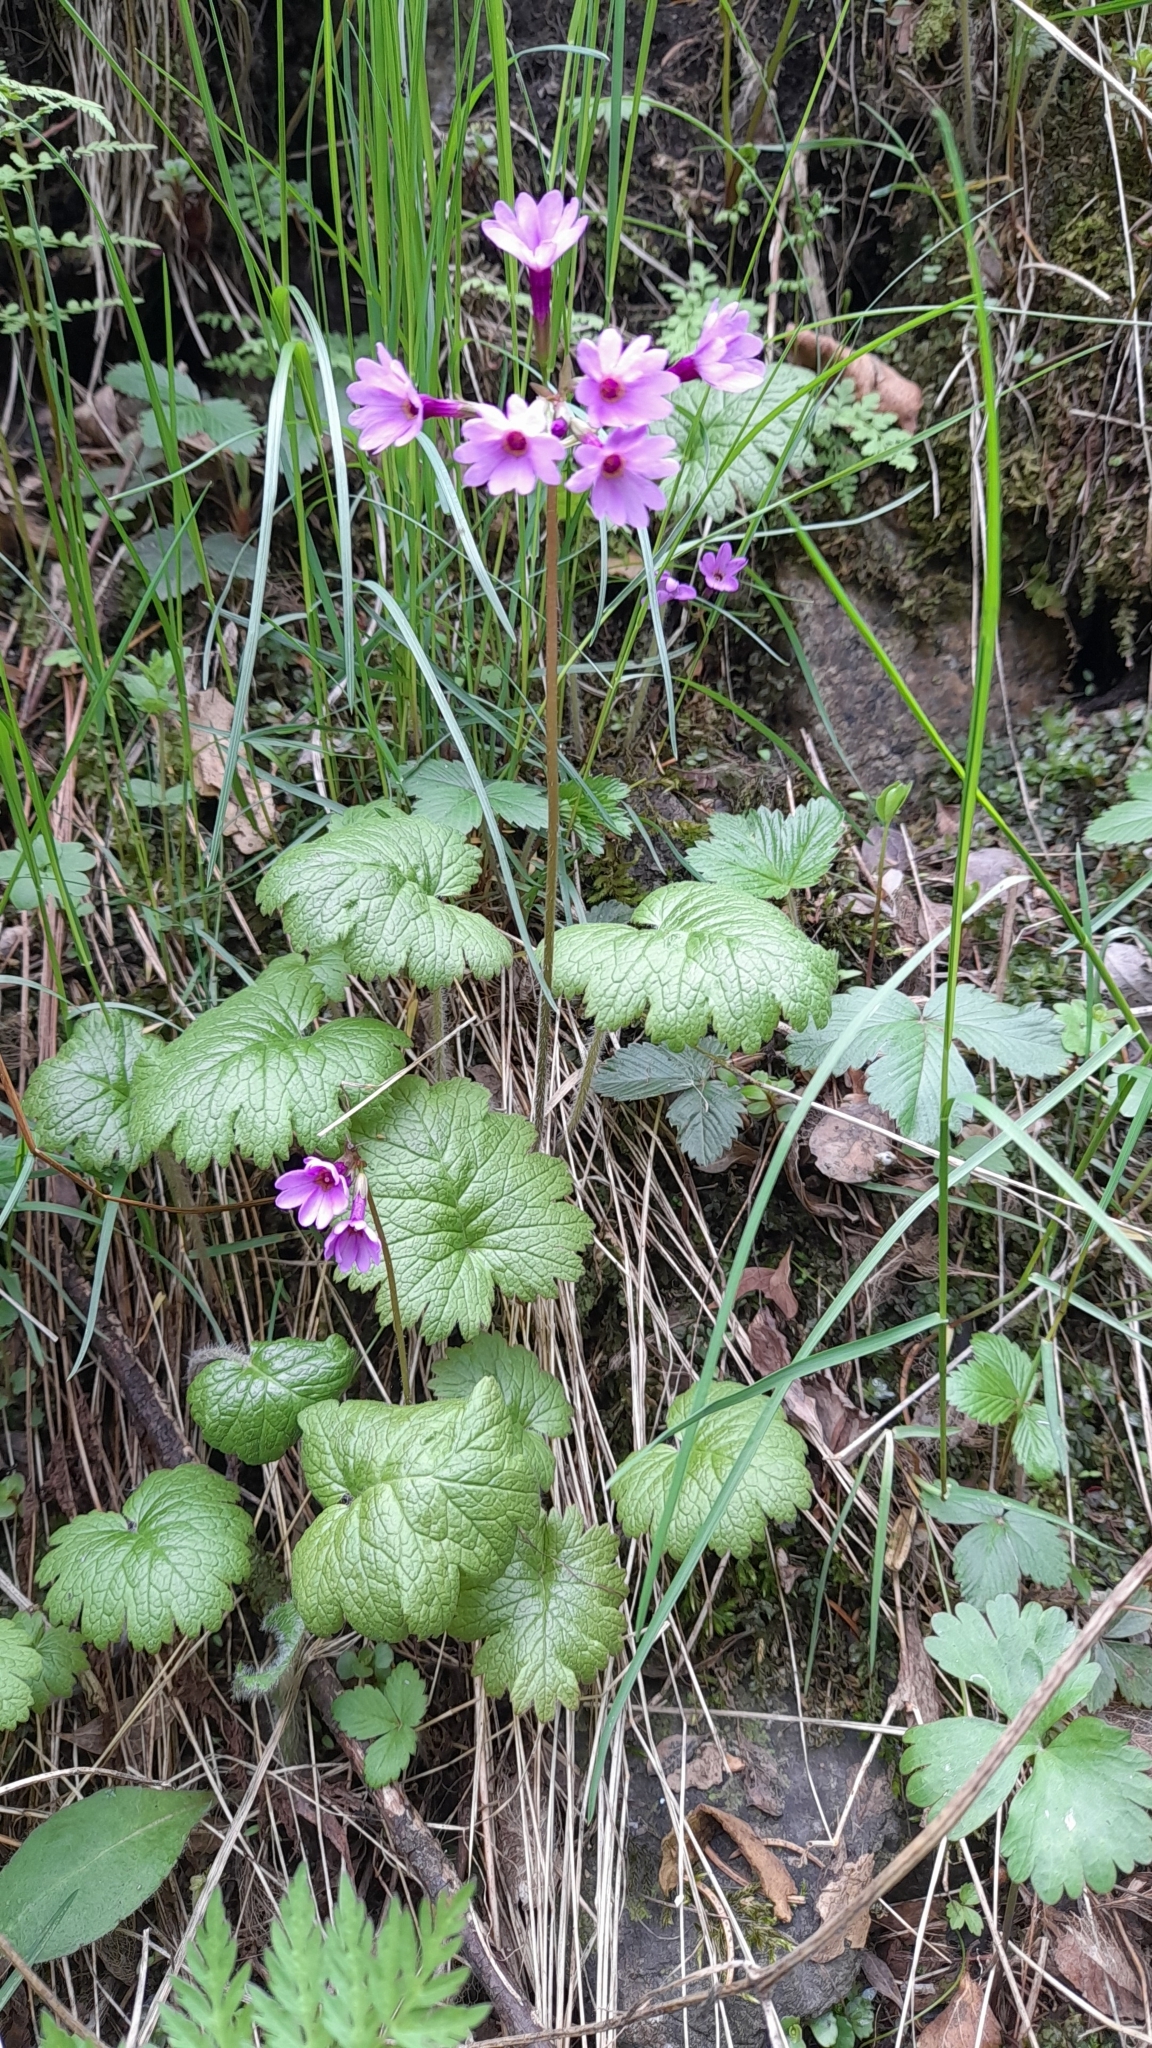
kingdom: Plantae
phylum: Tracheophyta
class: Magnoliopsida
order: Ericales
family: Primulaceae
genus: Primula
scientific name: Primula kaufmanniana
